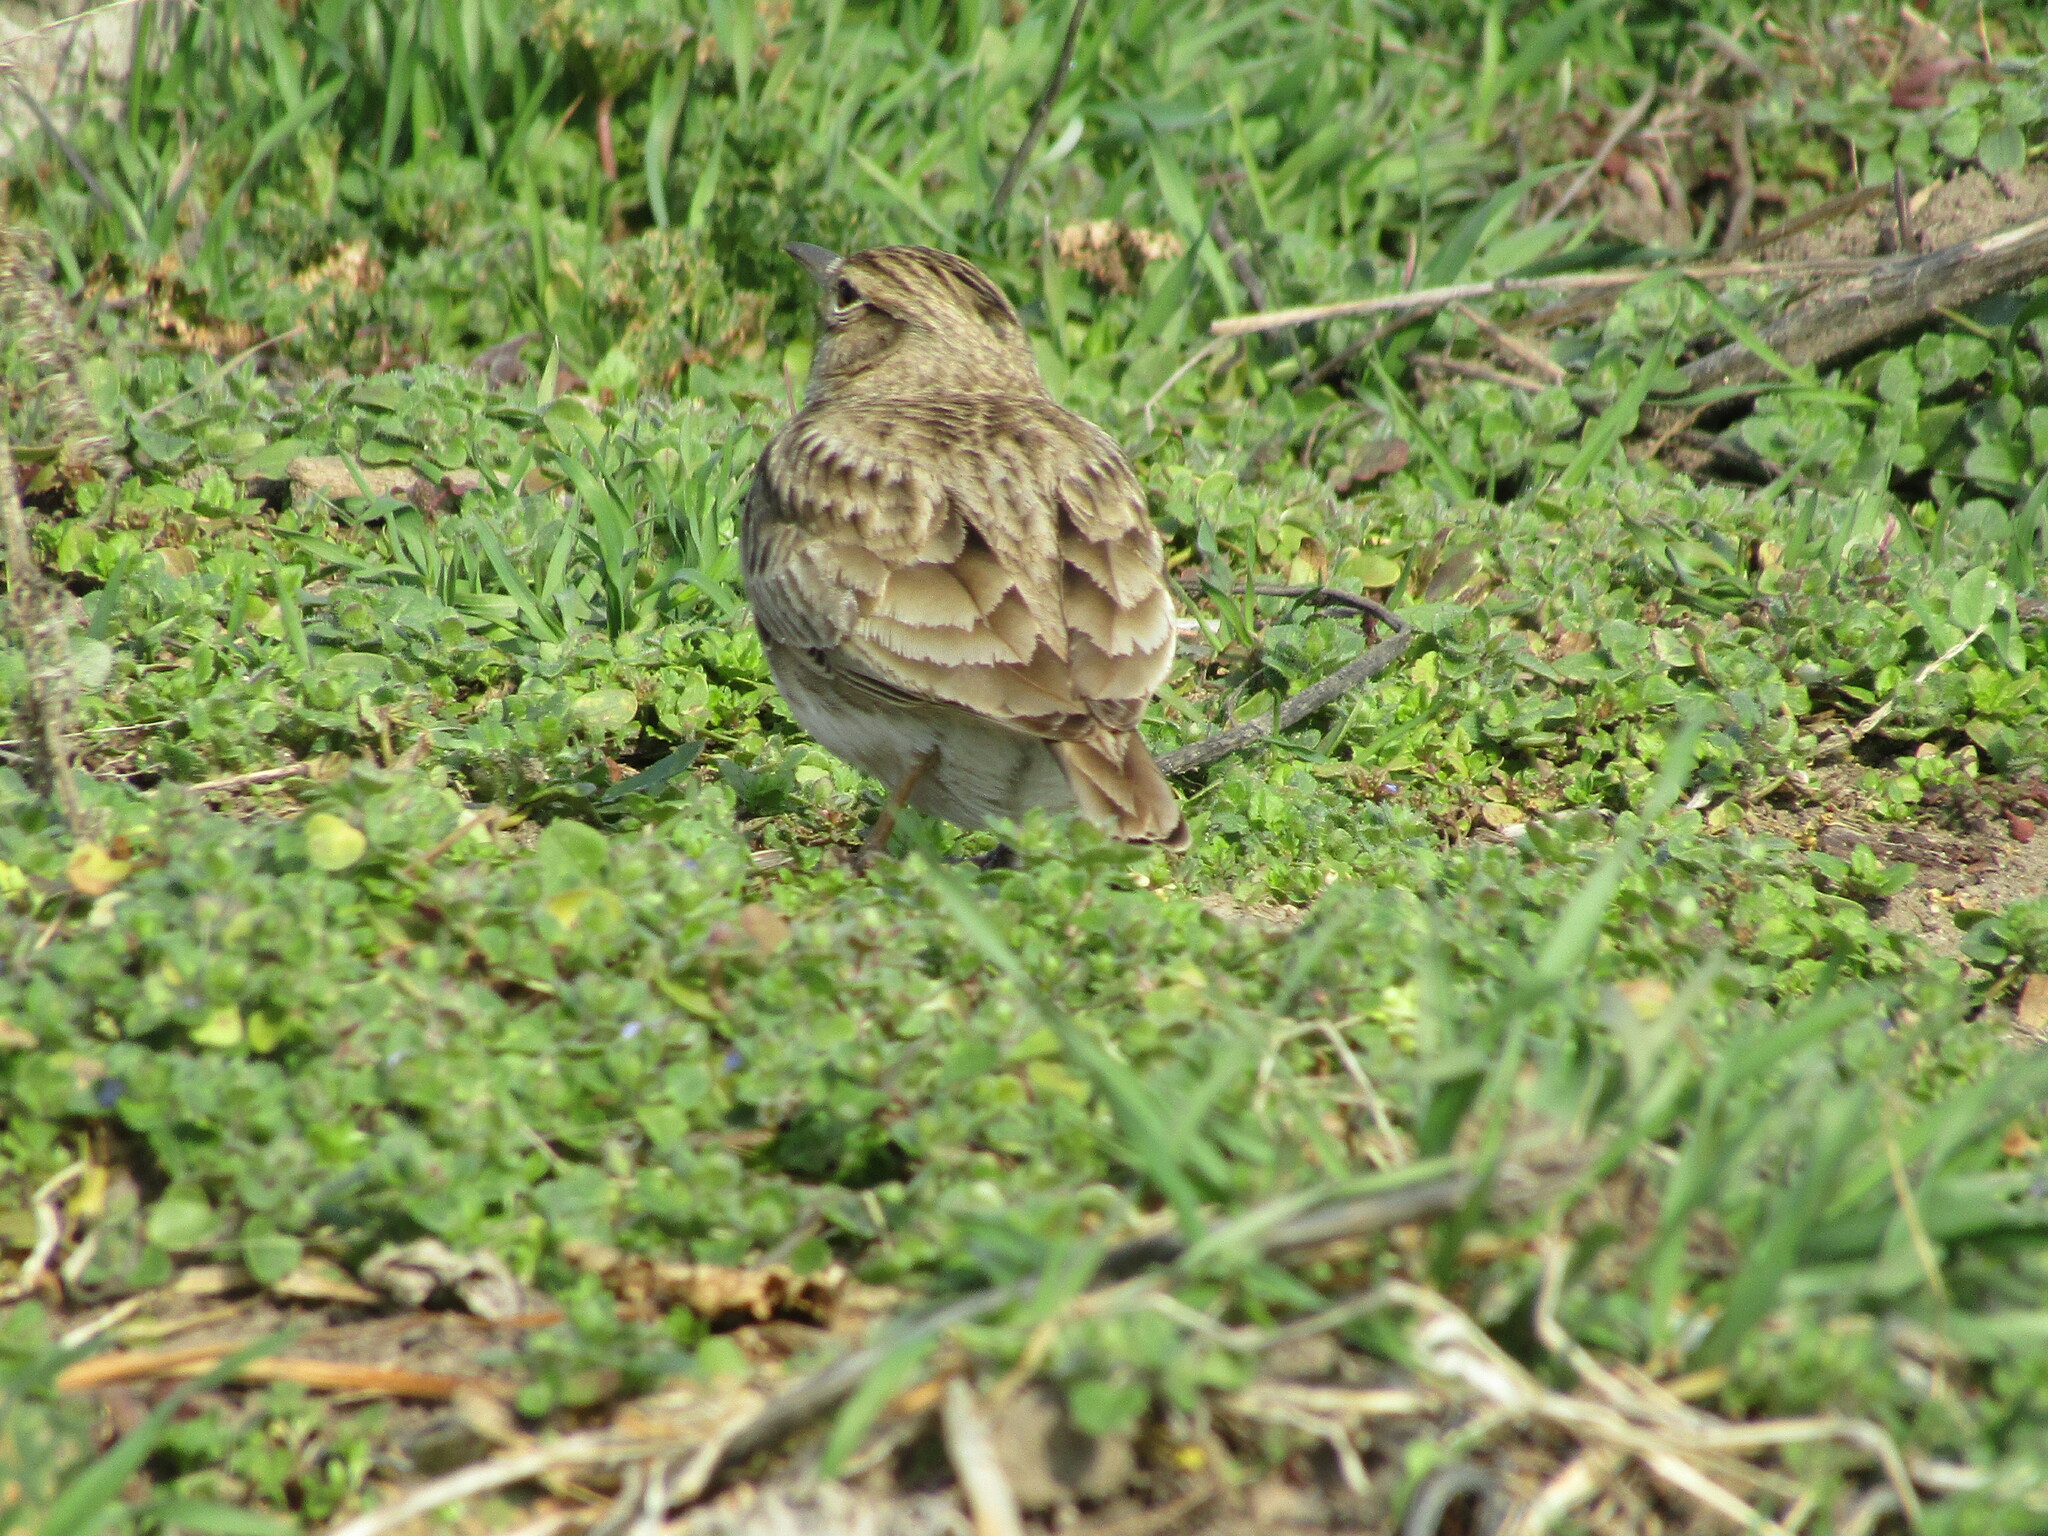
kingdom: Animalia
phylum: Chordata
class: Aves
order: Passeriformes
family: Alaudidae
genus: Galerida
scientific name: Galerida cristata
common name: Crested lark
